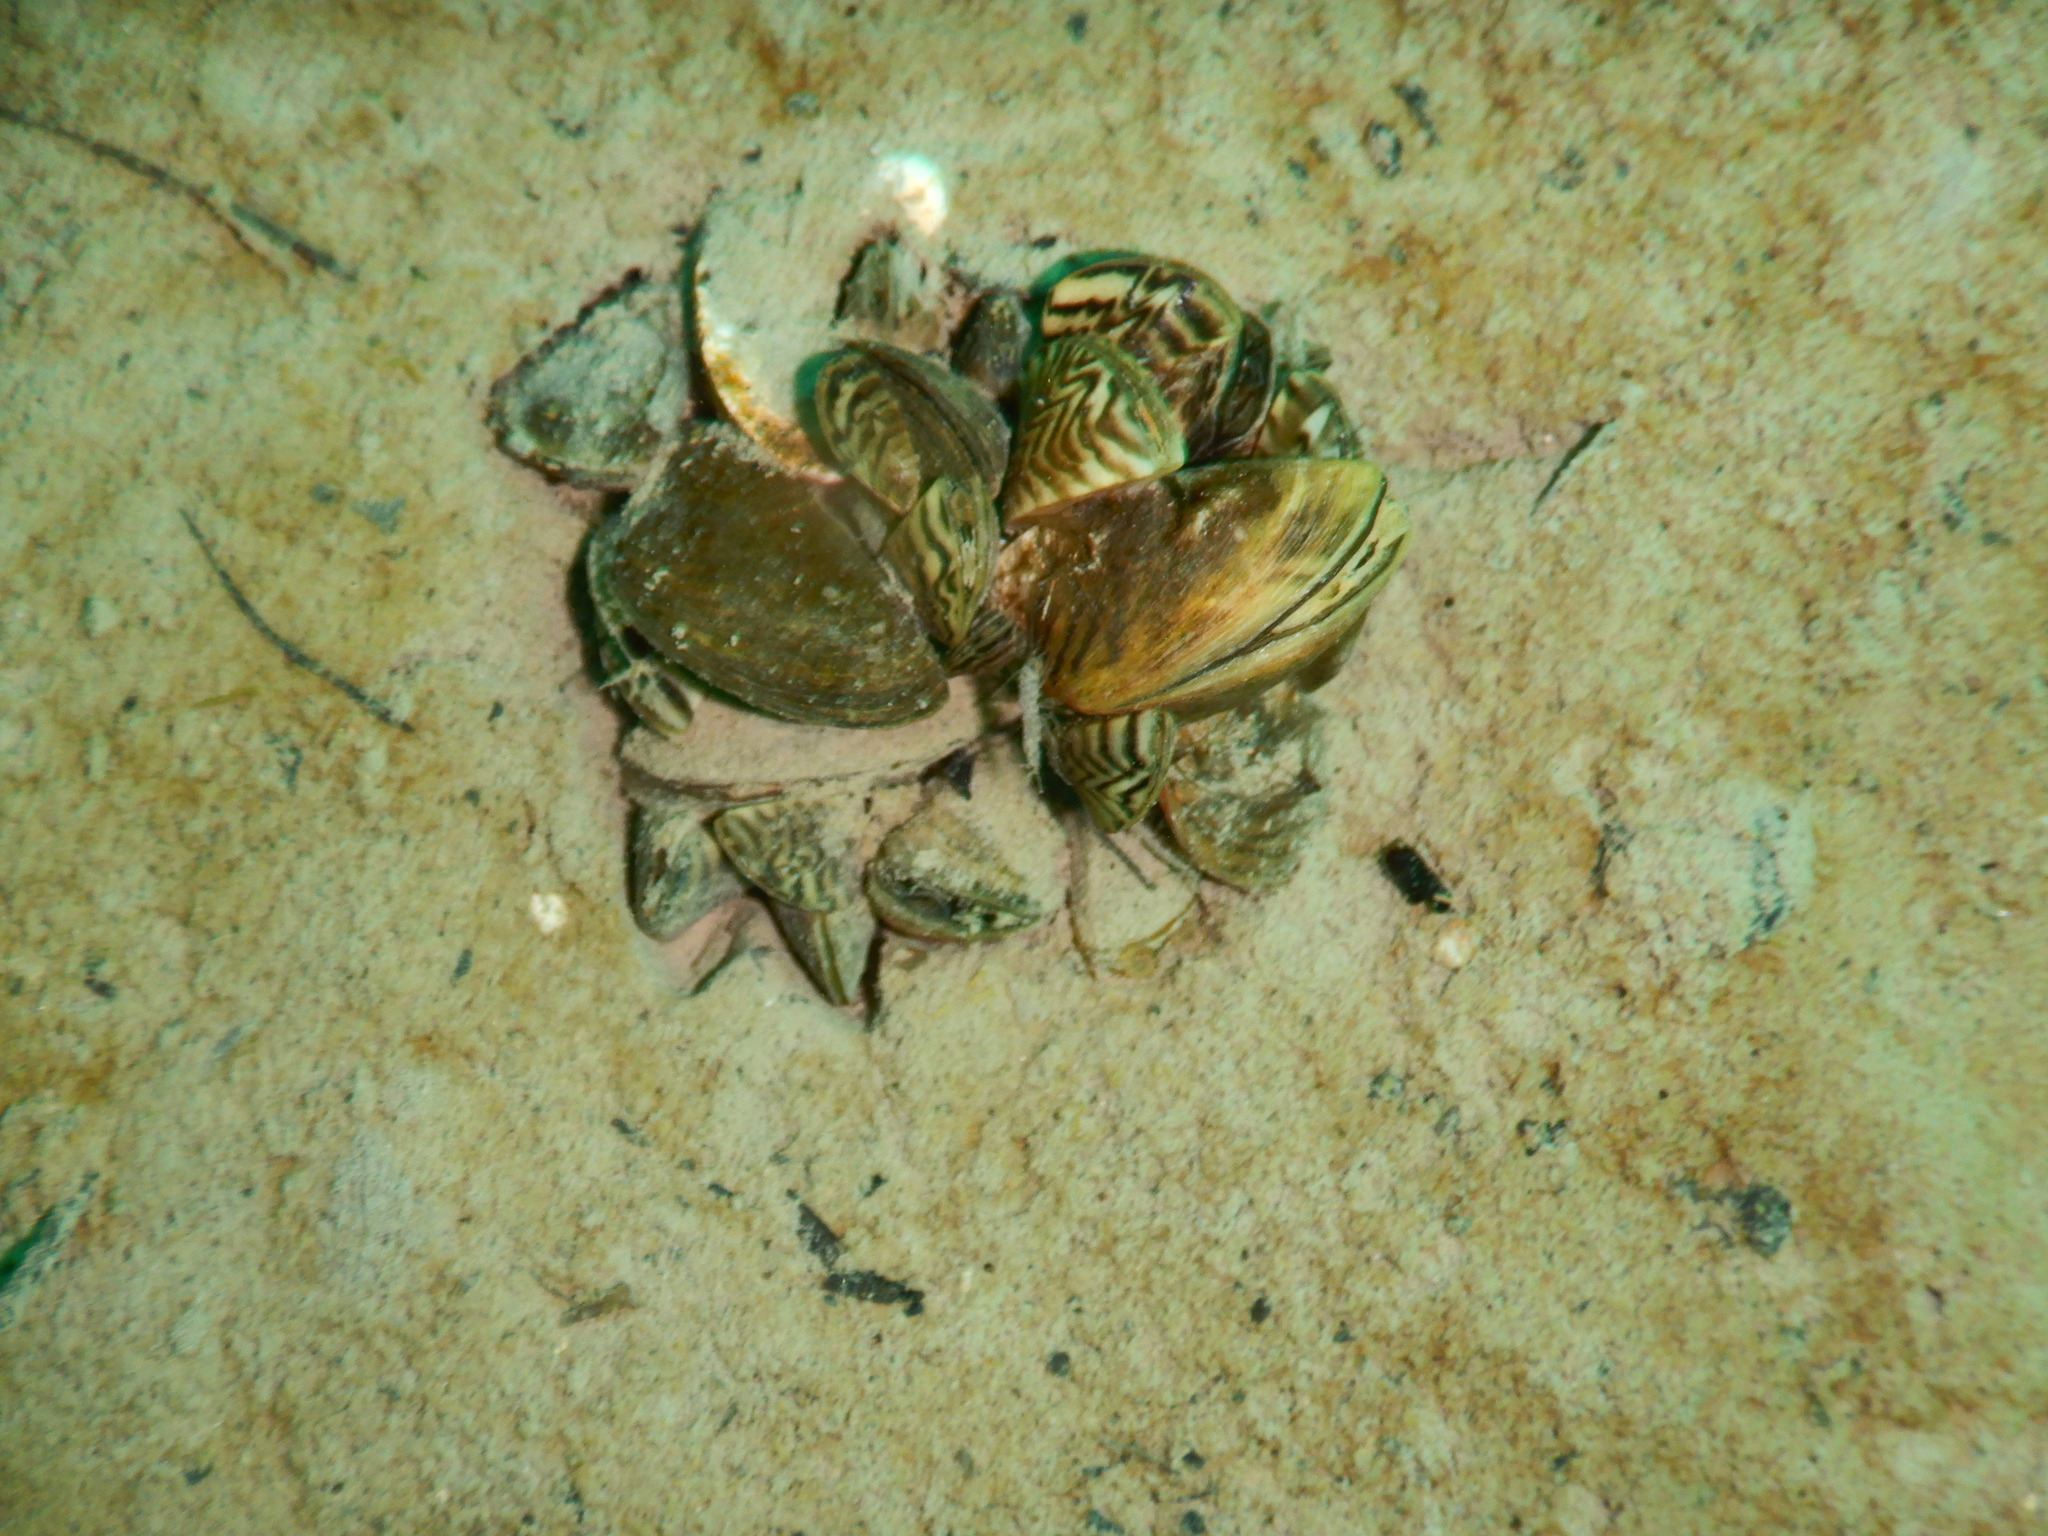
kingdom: Animalia
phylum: Mollusca
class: Bivalvia
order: Myida
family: Dreissenidae
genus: Dreissena
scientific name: Dreissena polymorpha
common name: Zebra mussel
